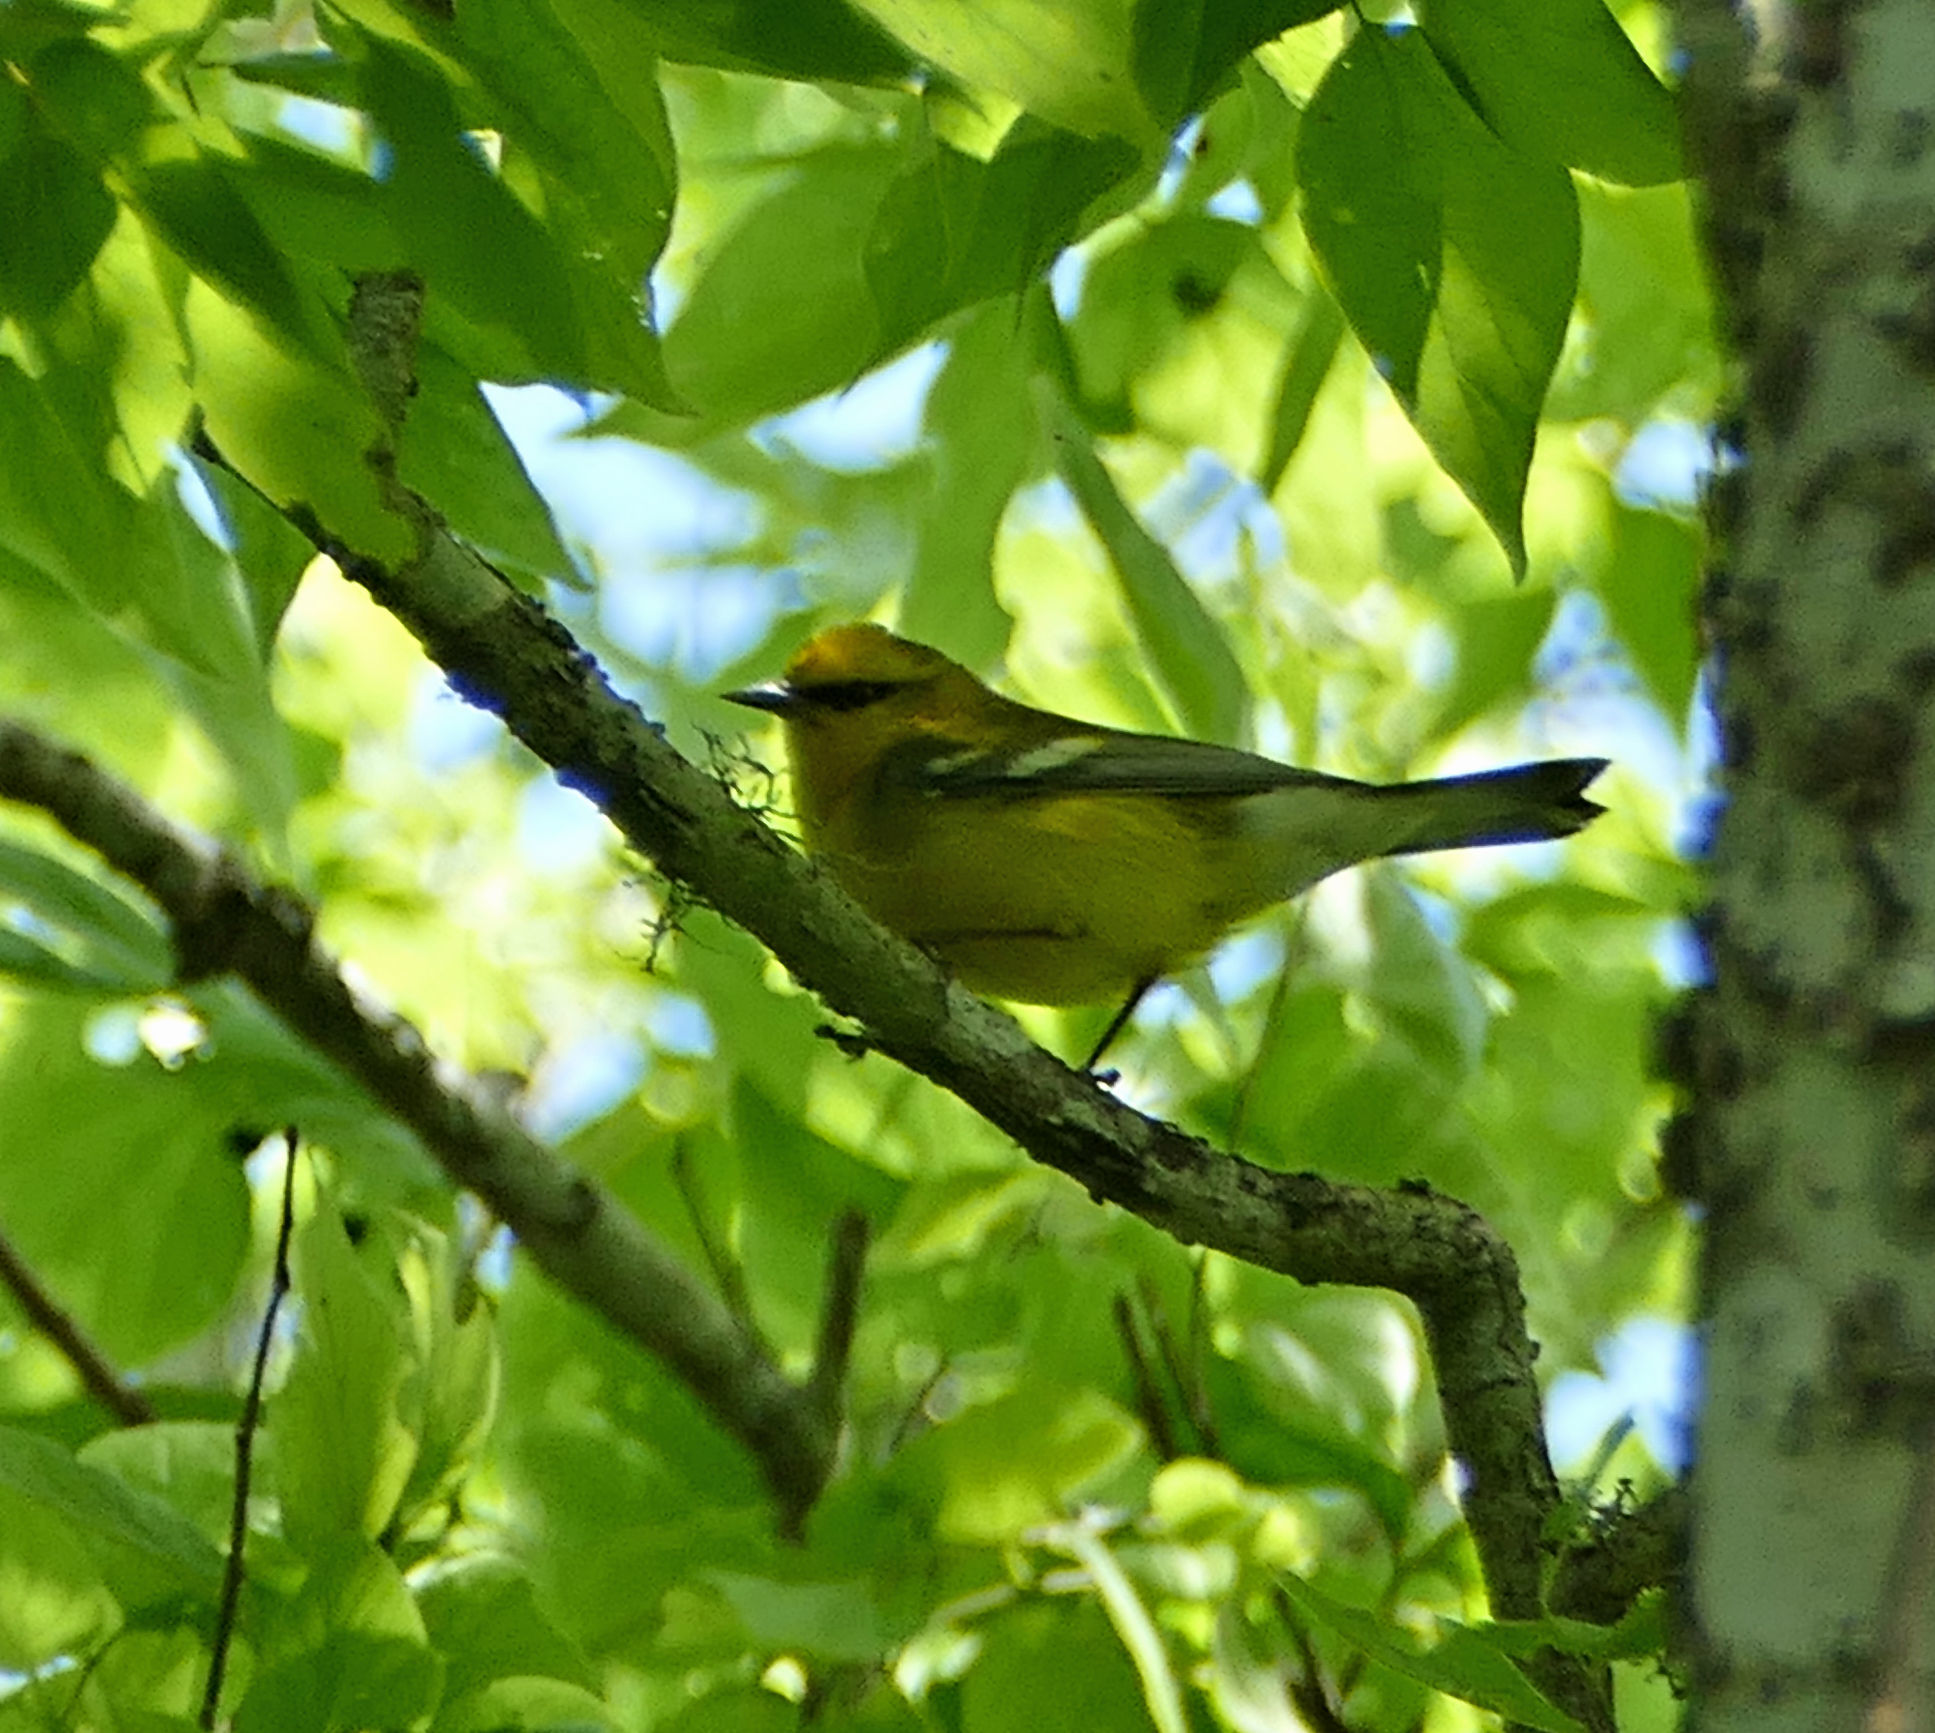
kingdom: Animalia
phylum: Chordata
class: Aves
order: Passeriformes
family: Parulidae
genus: Vermivora
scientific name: Vermivora cyanoptera
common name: Blue-winged warbler
